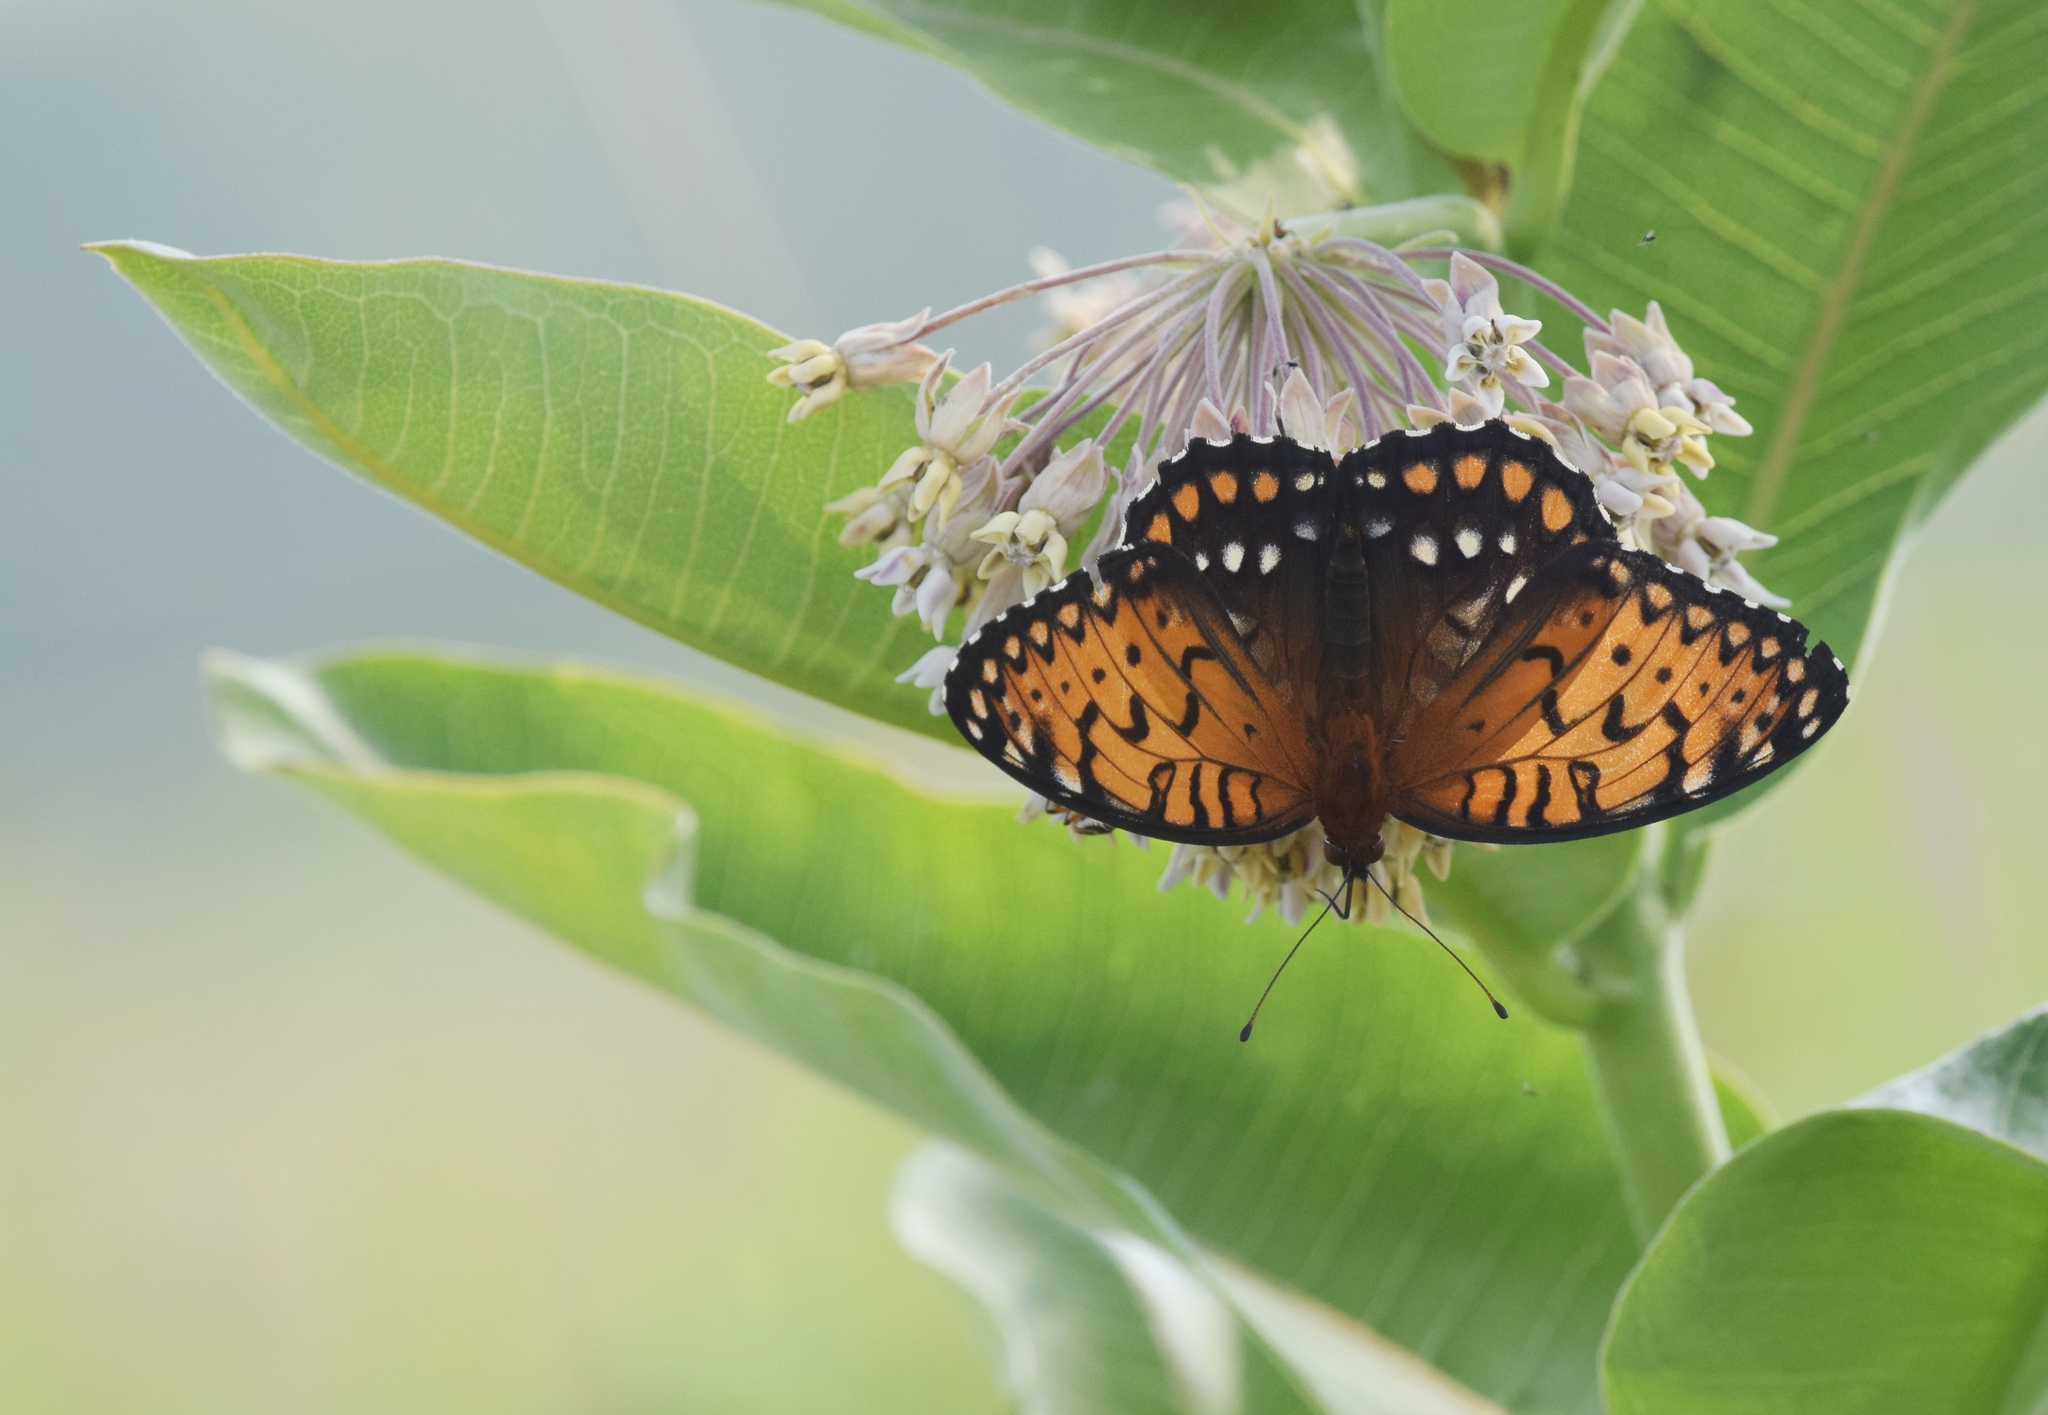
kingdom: Animalia
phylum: Arthropoda
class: Insecta
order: Lepidoptera
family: Nymphalidae
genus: Speyeria
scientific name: Speyeria idalia
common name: Regal fritillary
